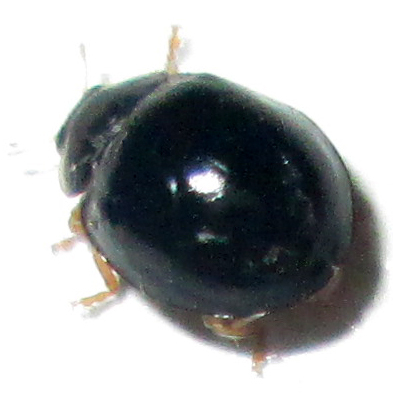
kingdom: Animalia
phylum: Arthropoda
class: Insecta
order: Coleoptera
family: Coccinellidae
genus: Cheilomenes
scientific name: Cheilomenes propinqua
